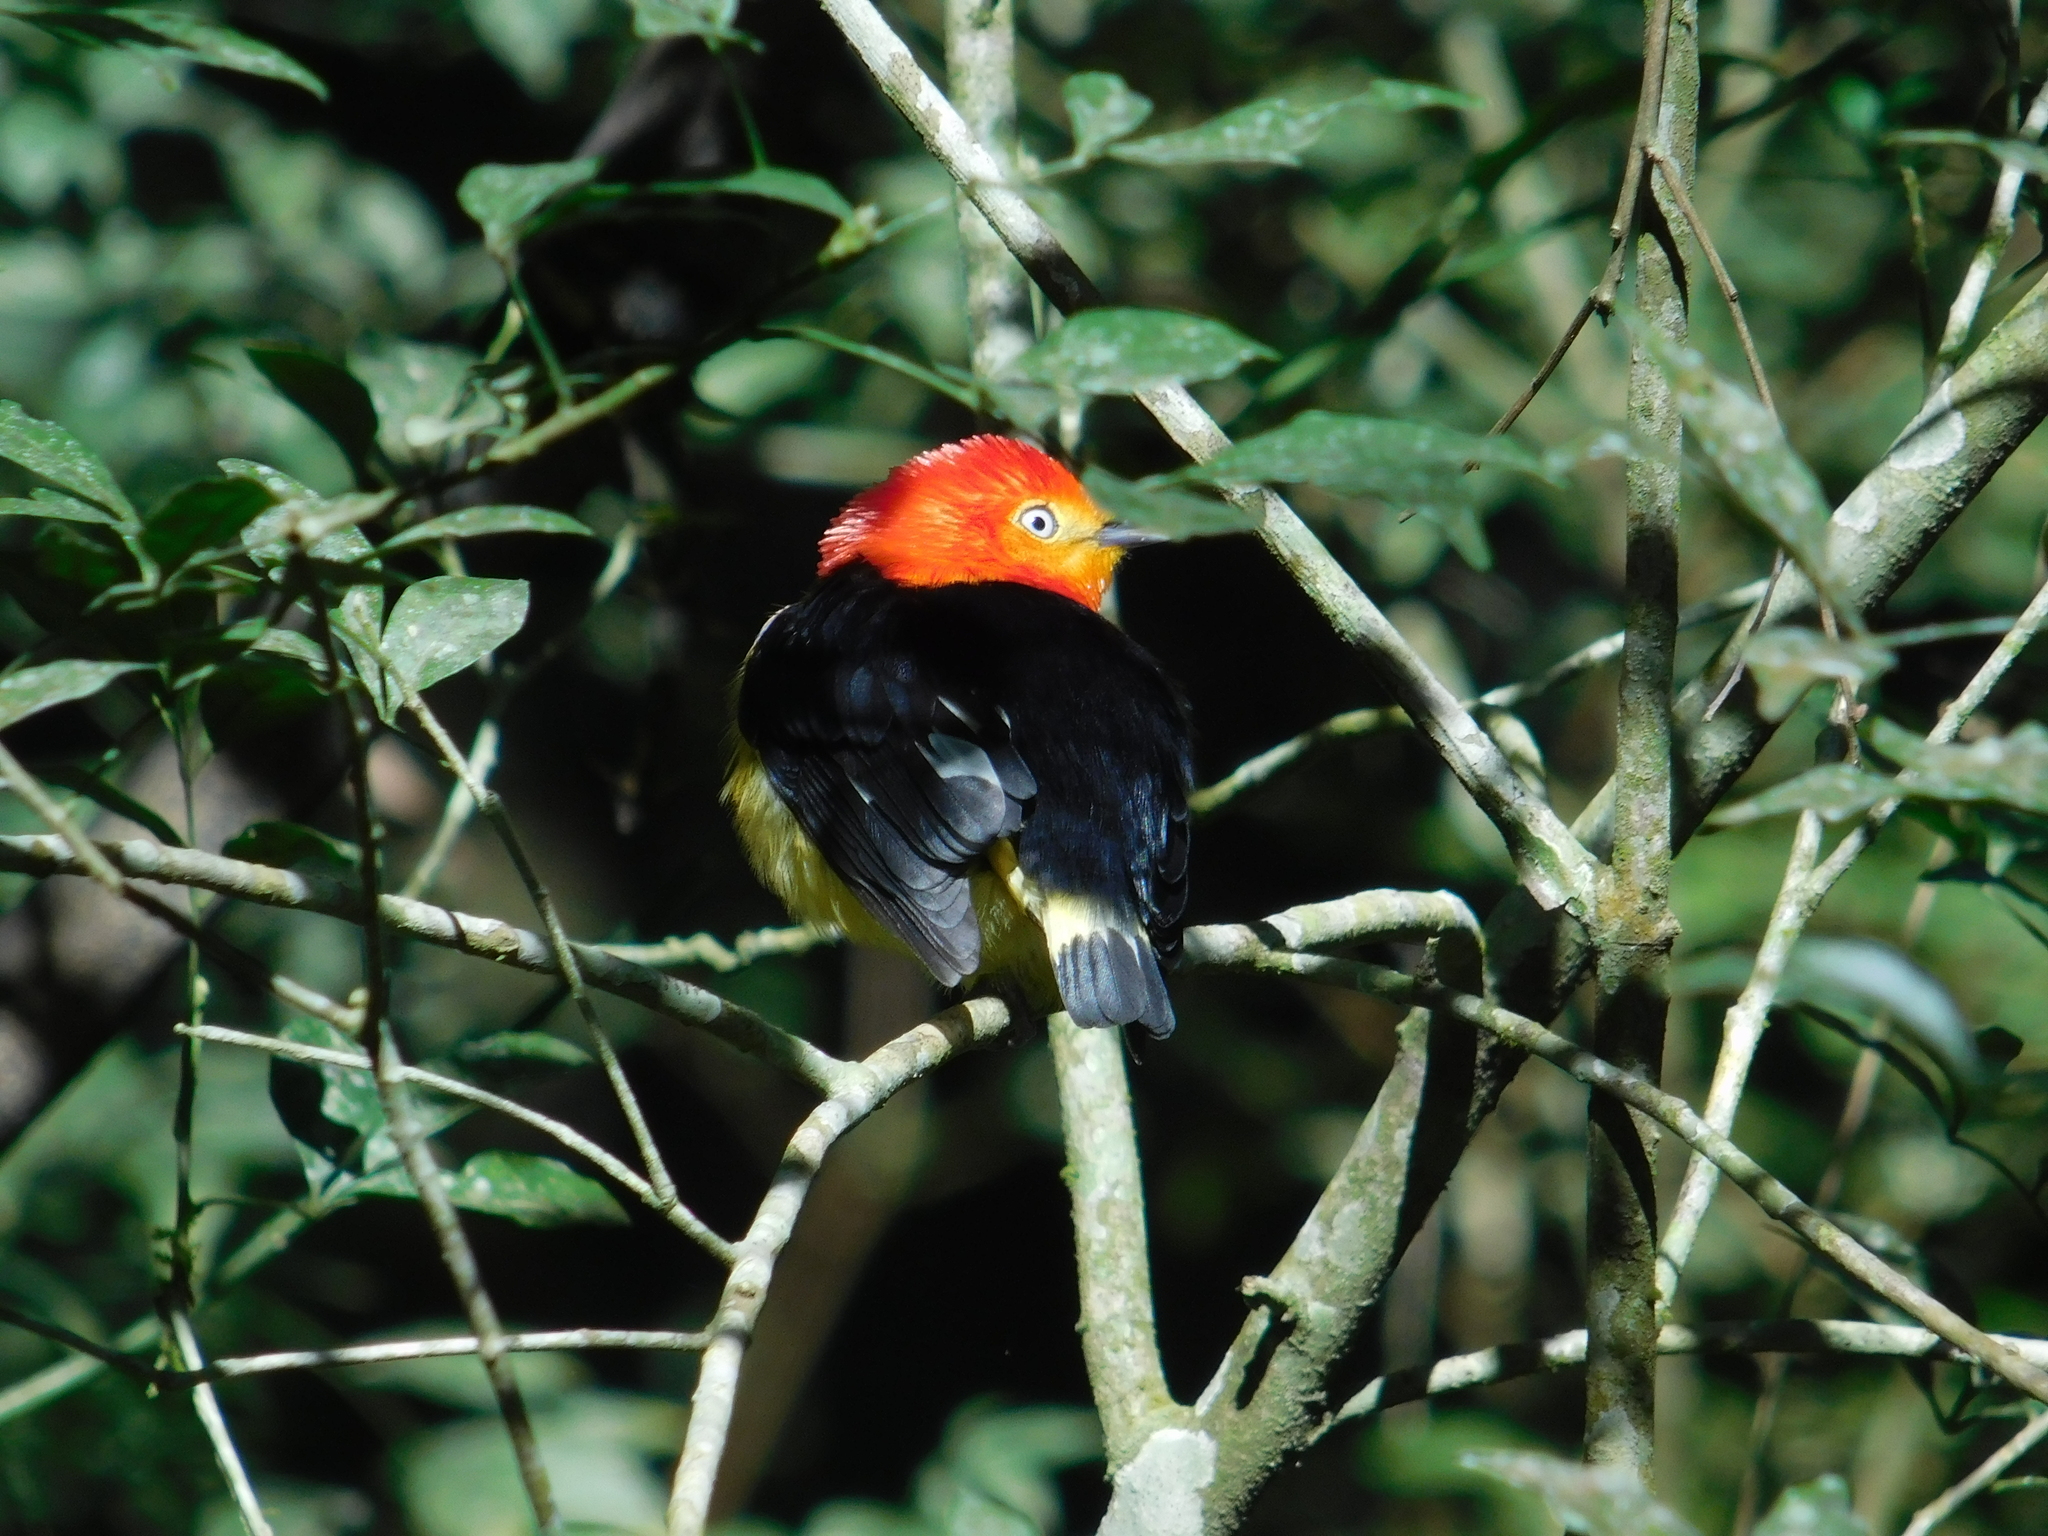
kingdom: Animalia
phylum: Chordata
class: Aves
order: Passeriformes
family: Pipridae
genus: Pipra
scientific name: Pipra fasciicauda
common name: Band-tailed manakin
